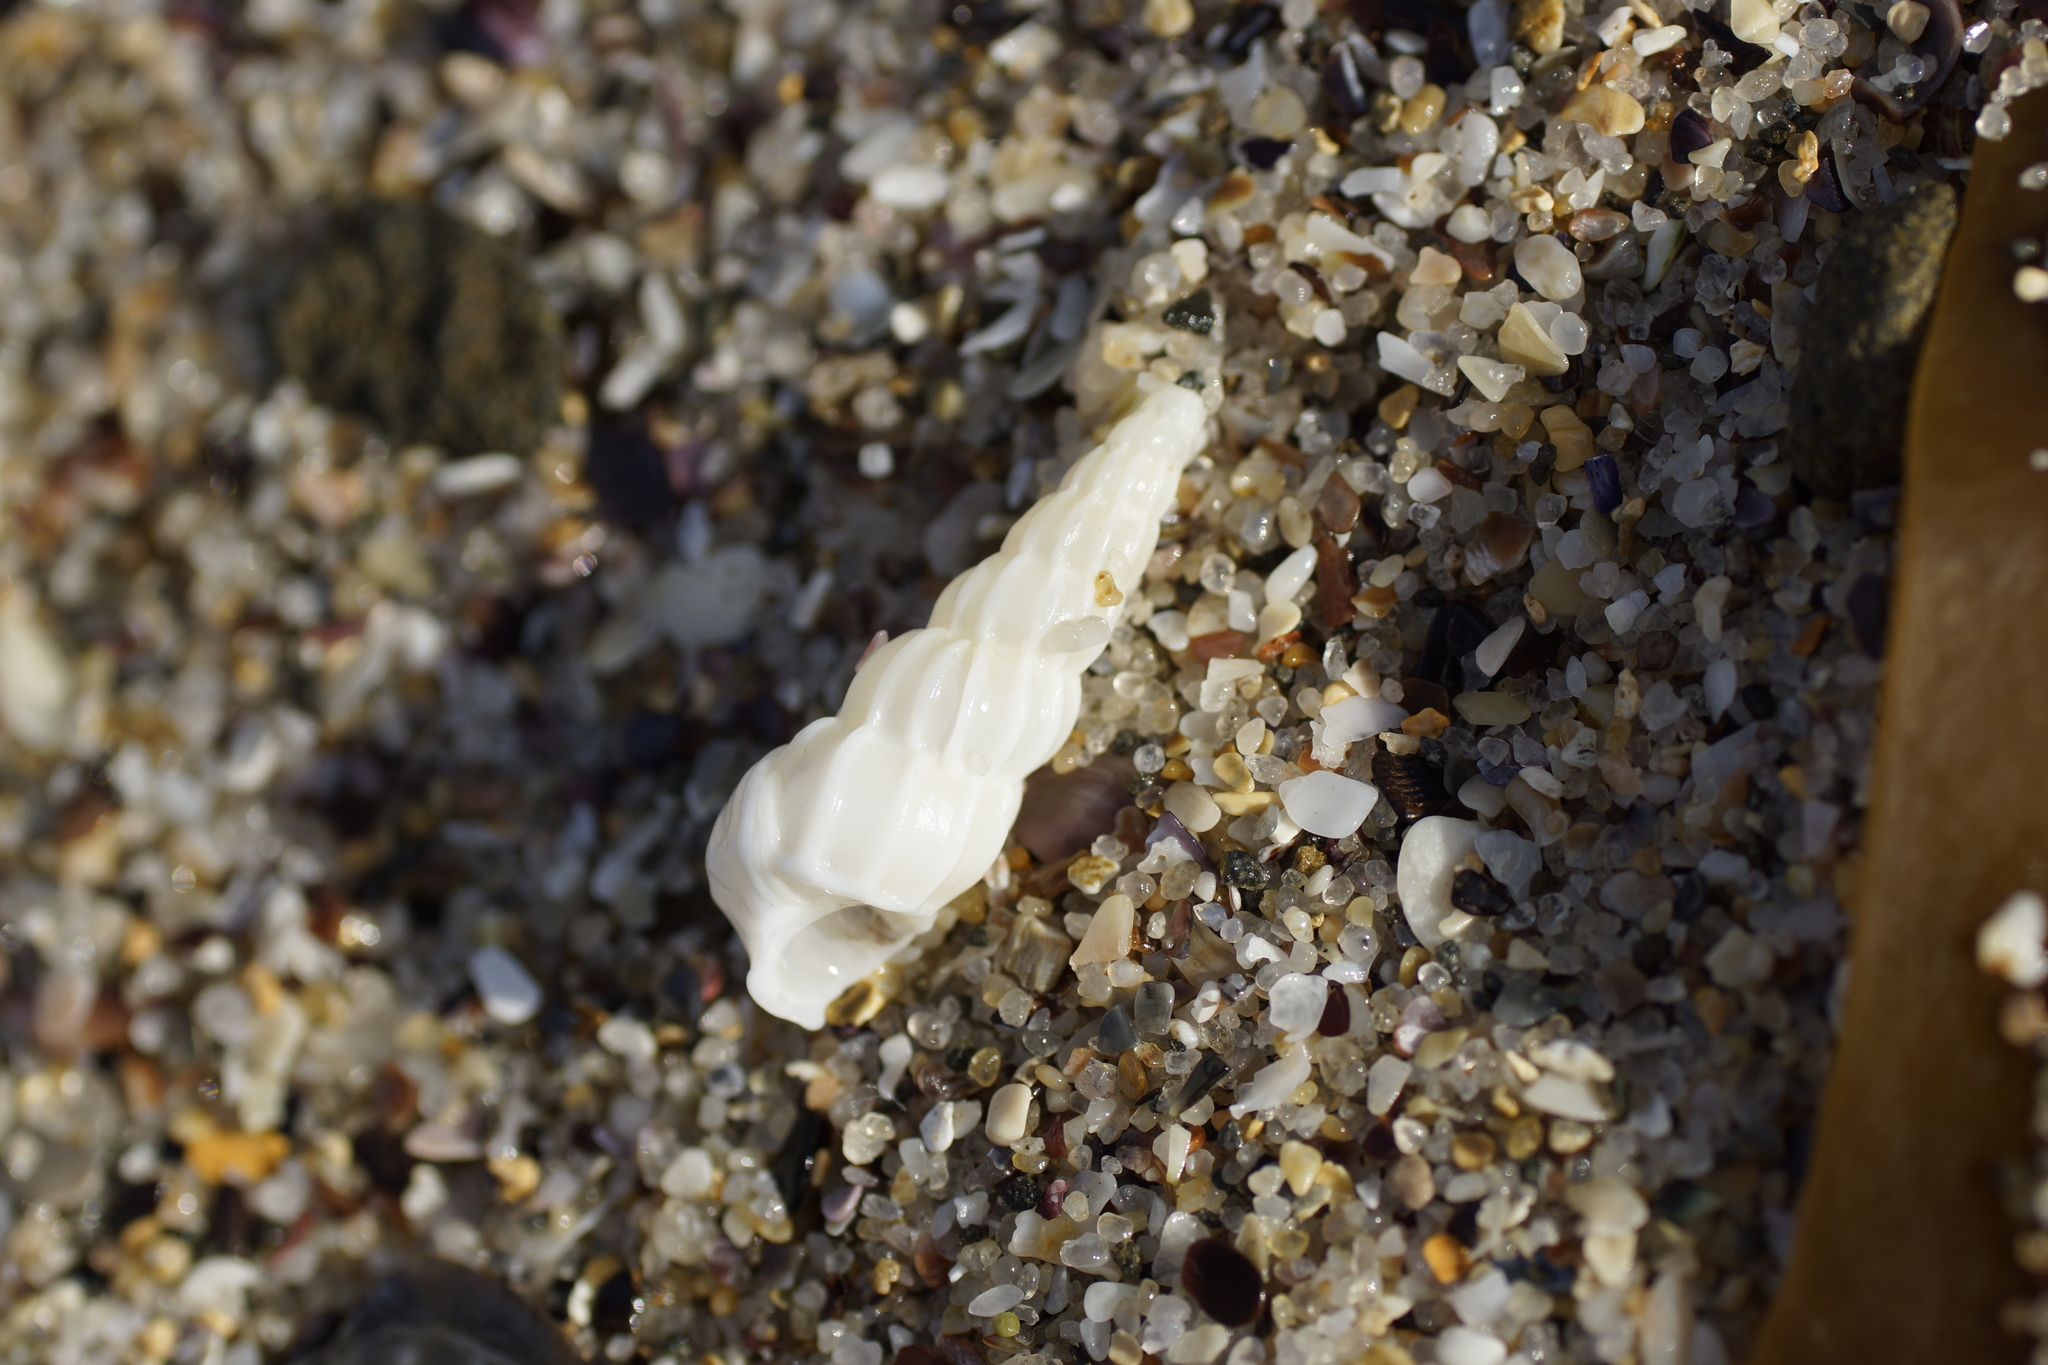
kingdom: Animalia
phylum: Mollusca
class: Gastropoda
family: Epitoniidae
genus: Opalia
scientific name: Opalia australis
